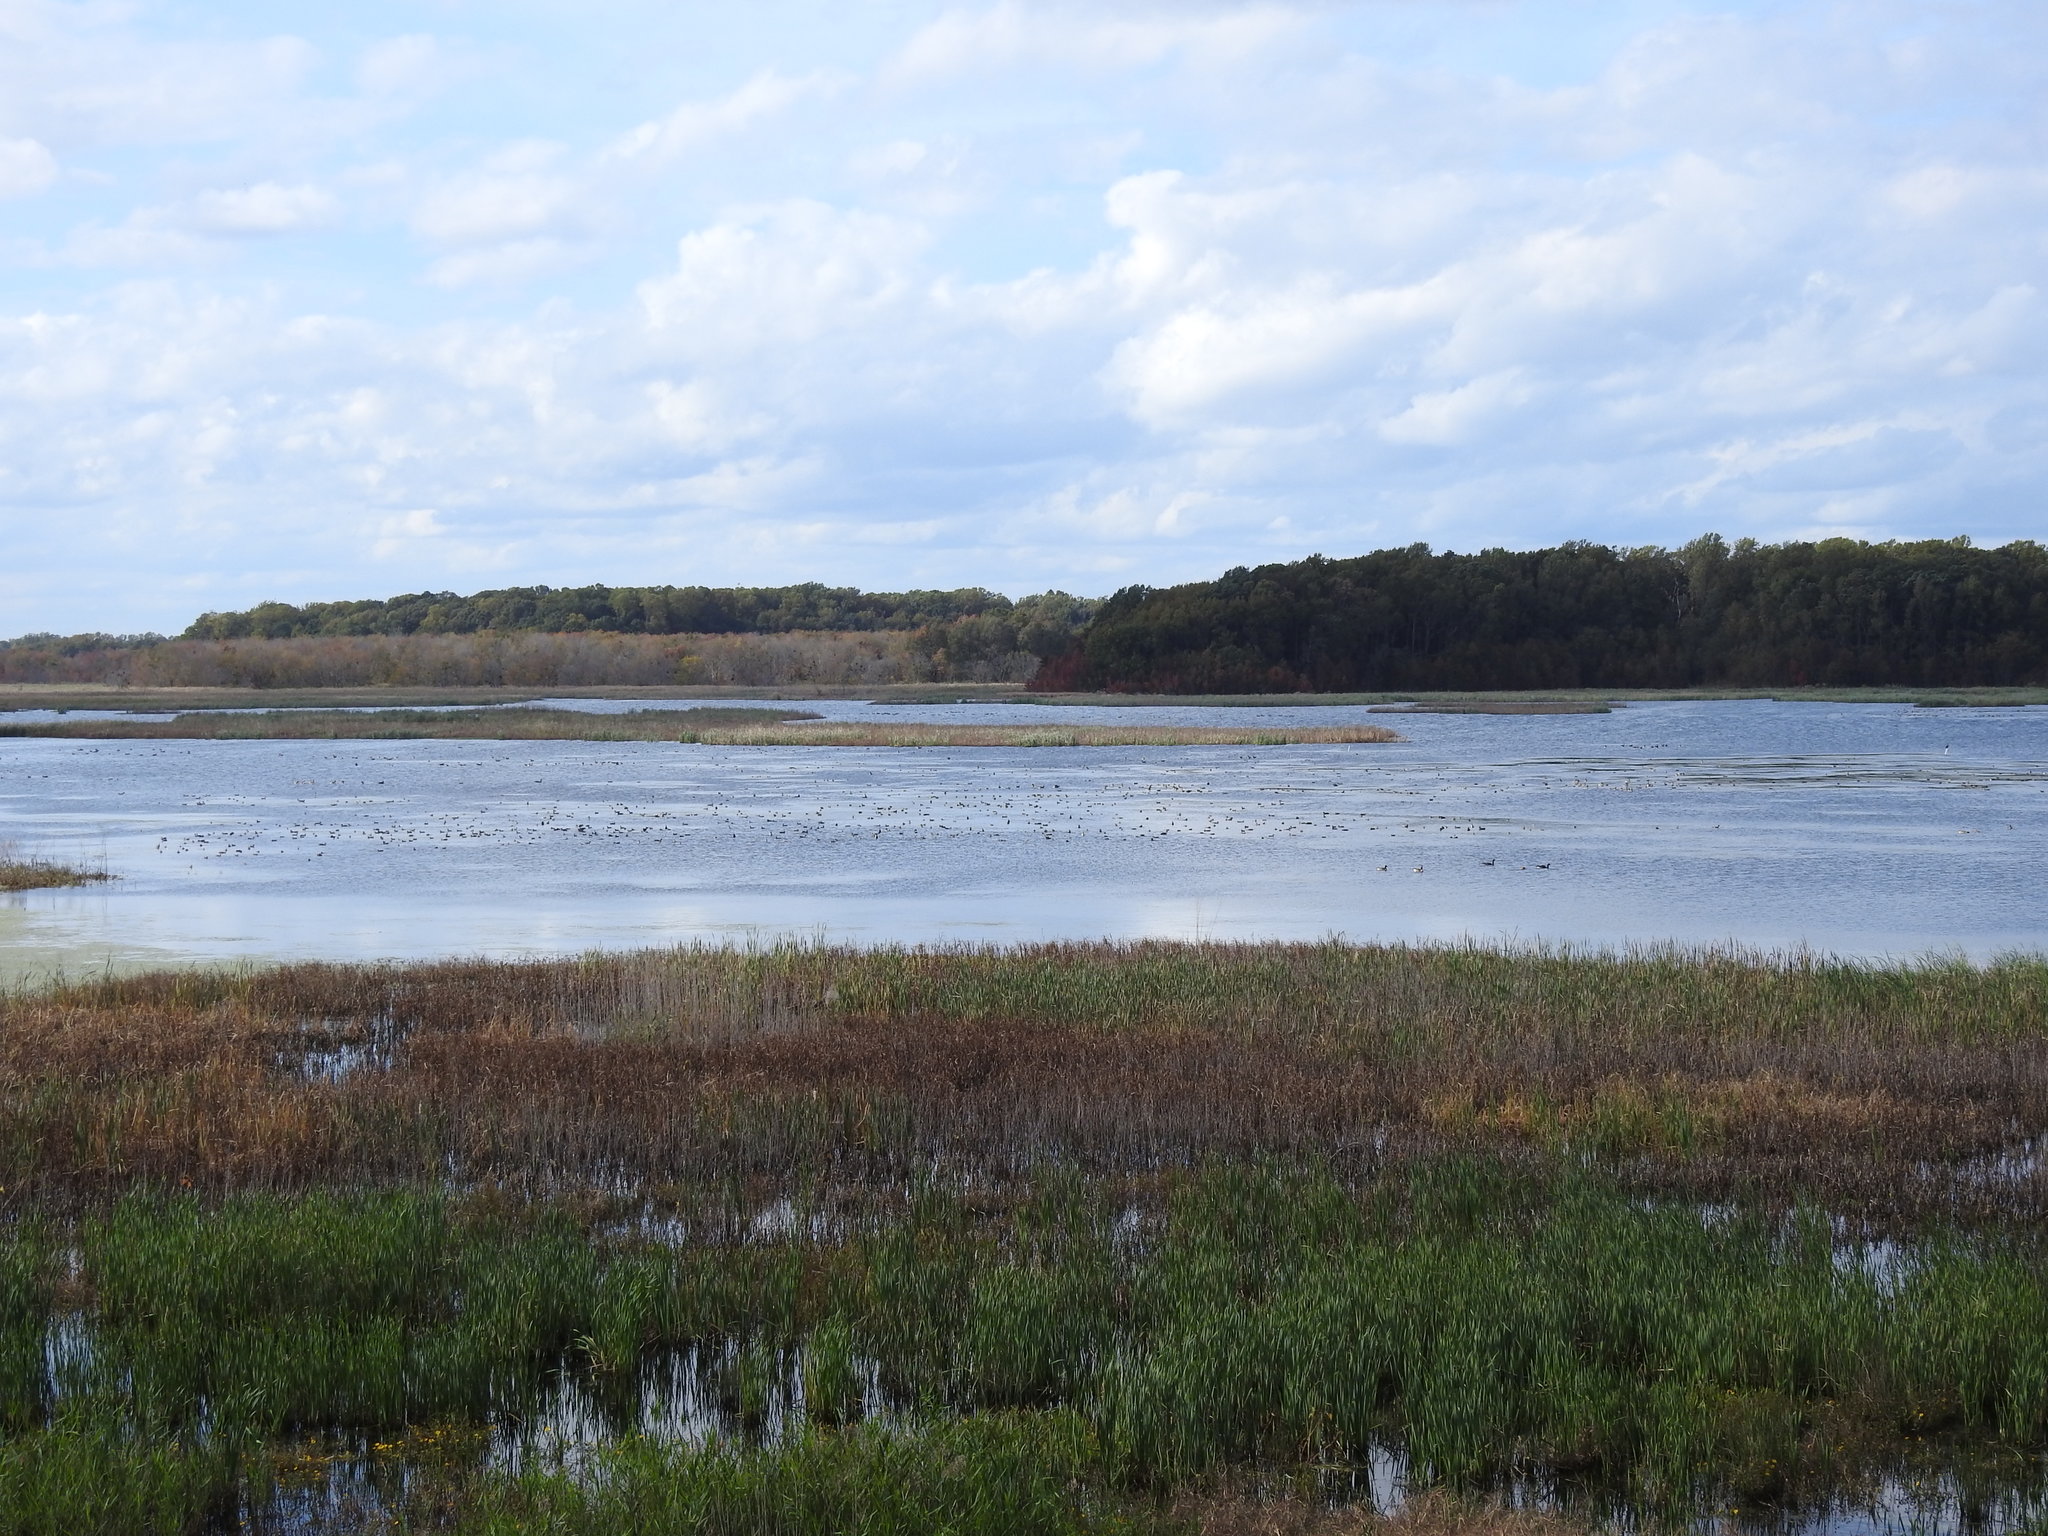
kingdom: Animalia
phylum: Chordata
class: Aves
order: Anseriformes
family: Anatidae
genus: Oxyura
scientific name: Oxyura jamaicensis
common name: Ruddy duck
